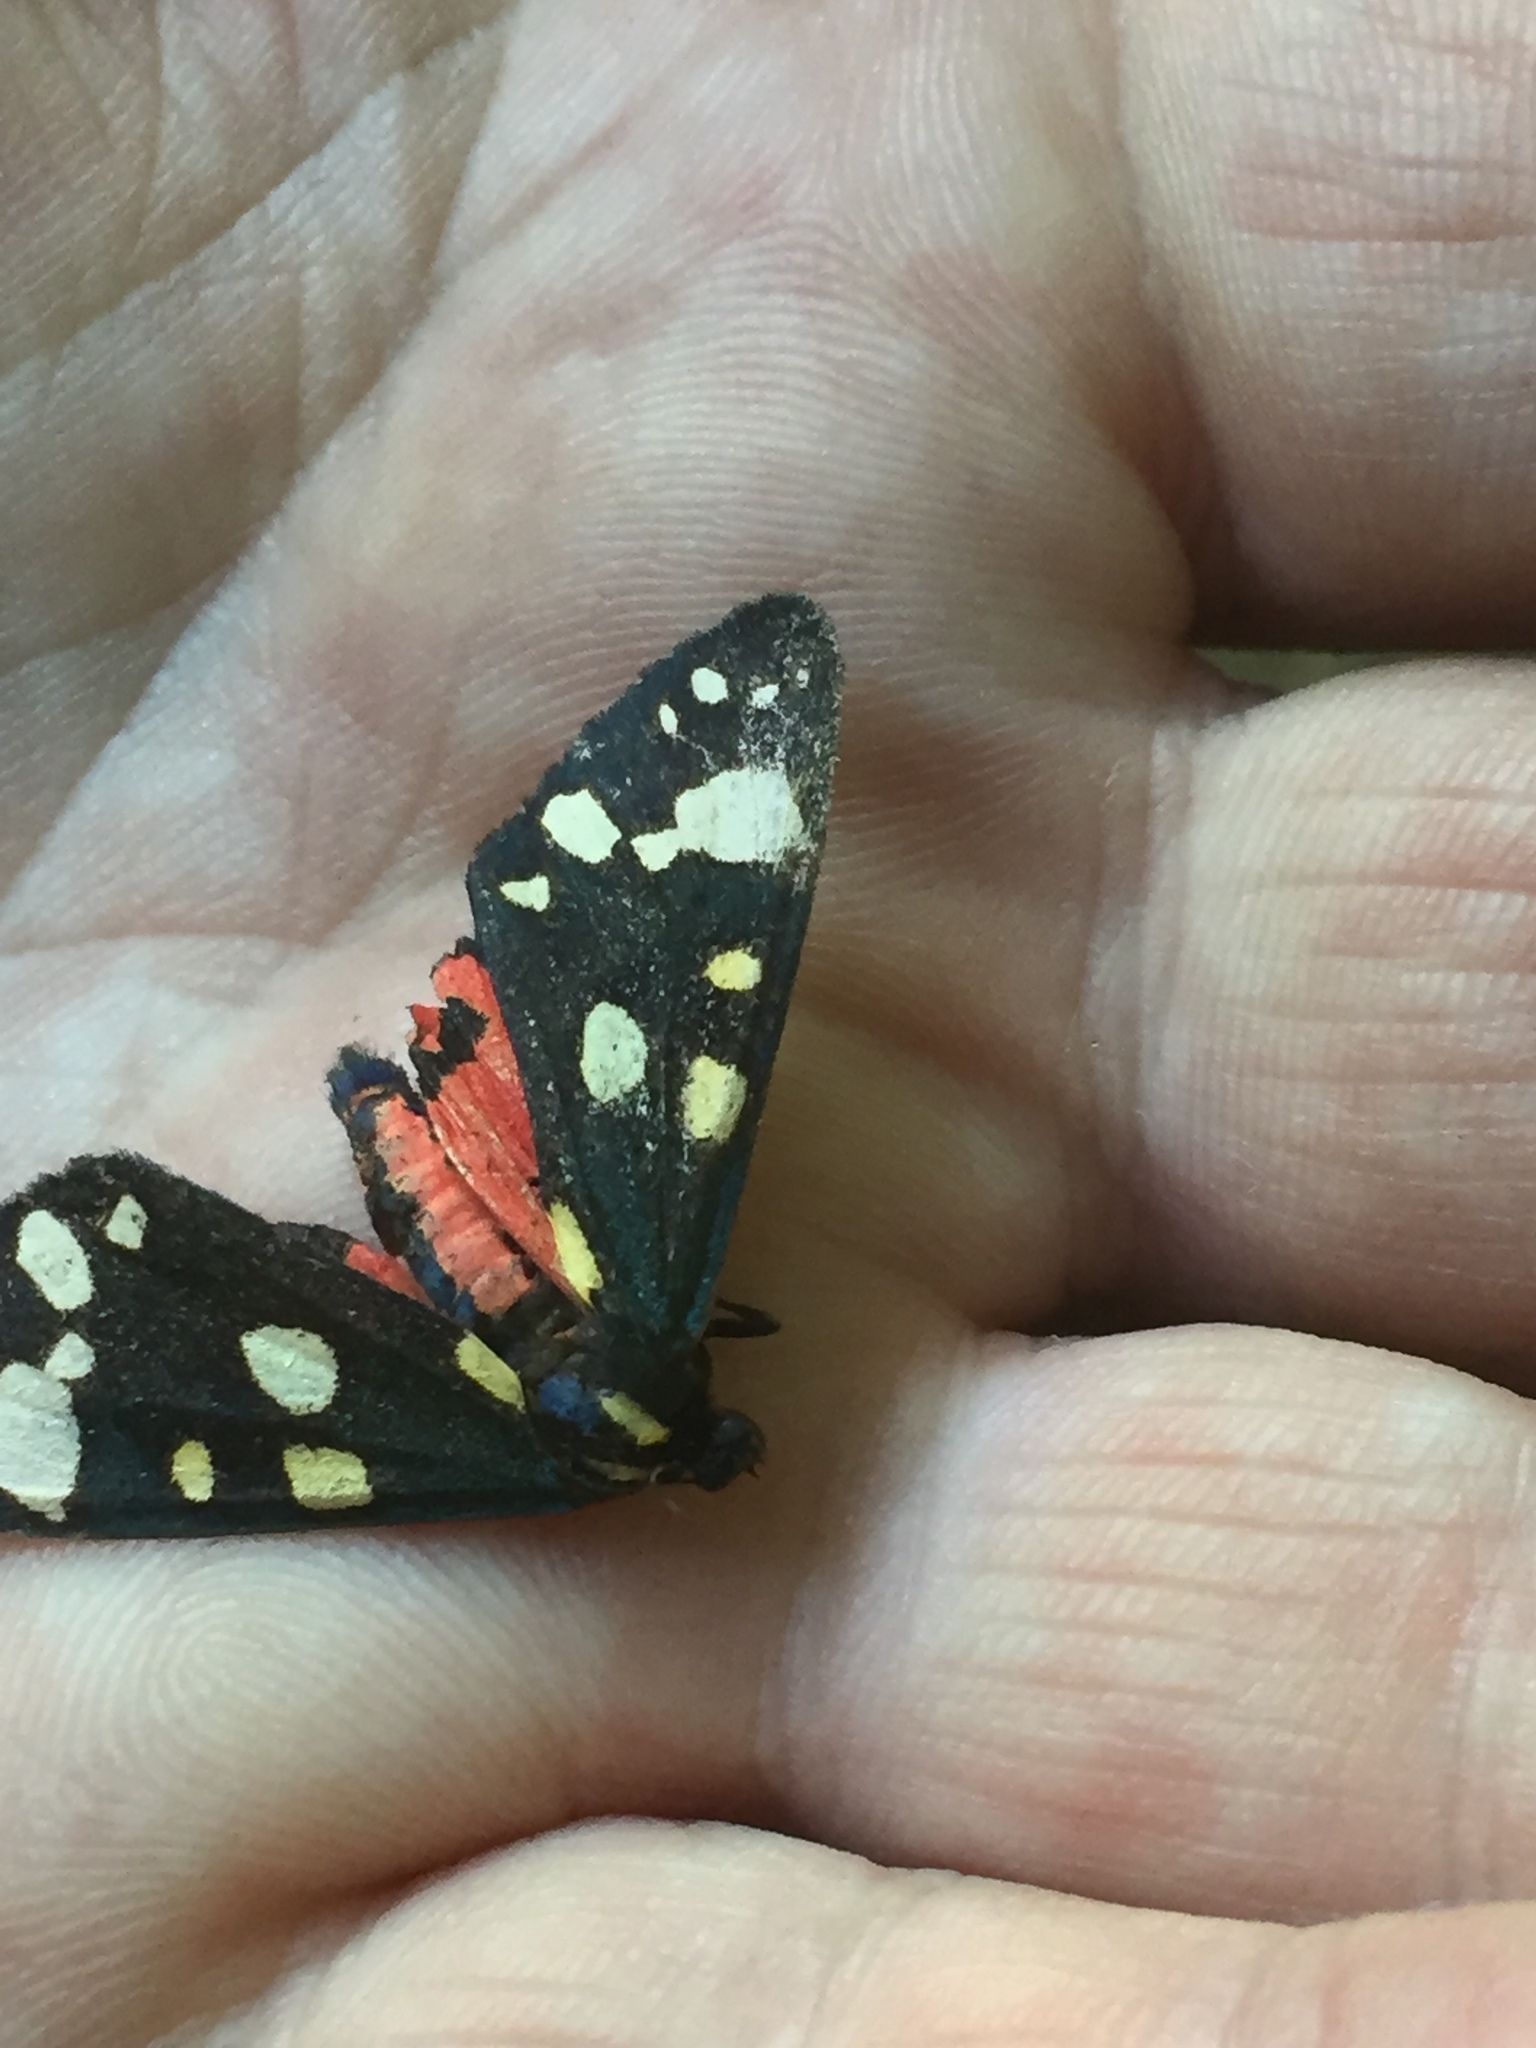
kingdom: Animalia
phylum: Arthropoda
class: Insecta
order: Lepidoptera
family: Erebidae
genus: Callimorpha
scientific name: Callimorpha dominula
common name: Scarlet tiger
